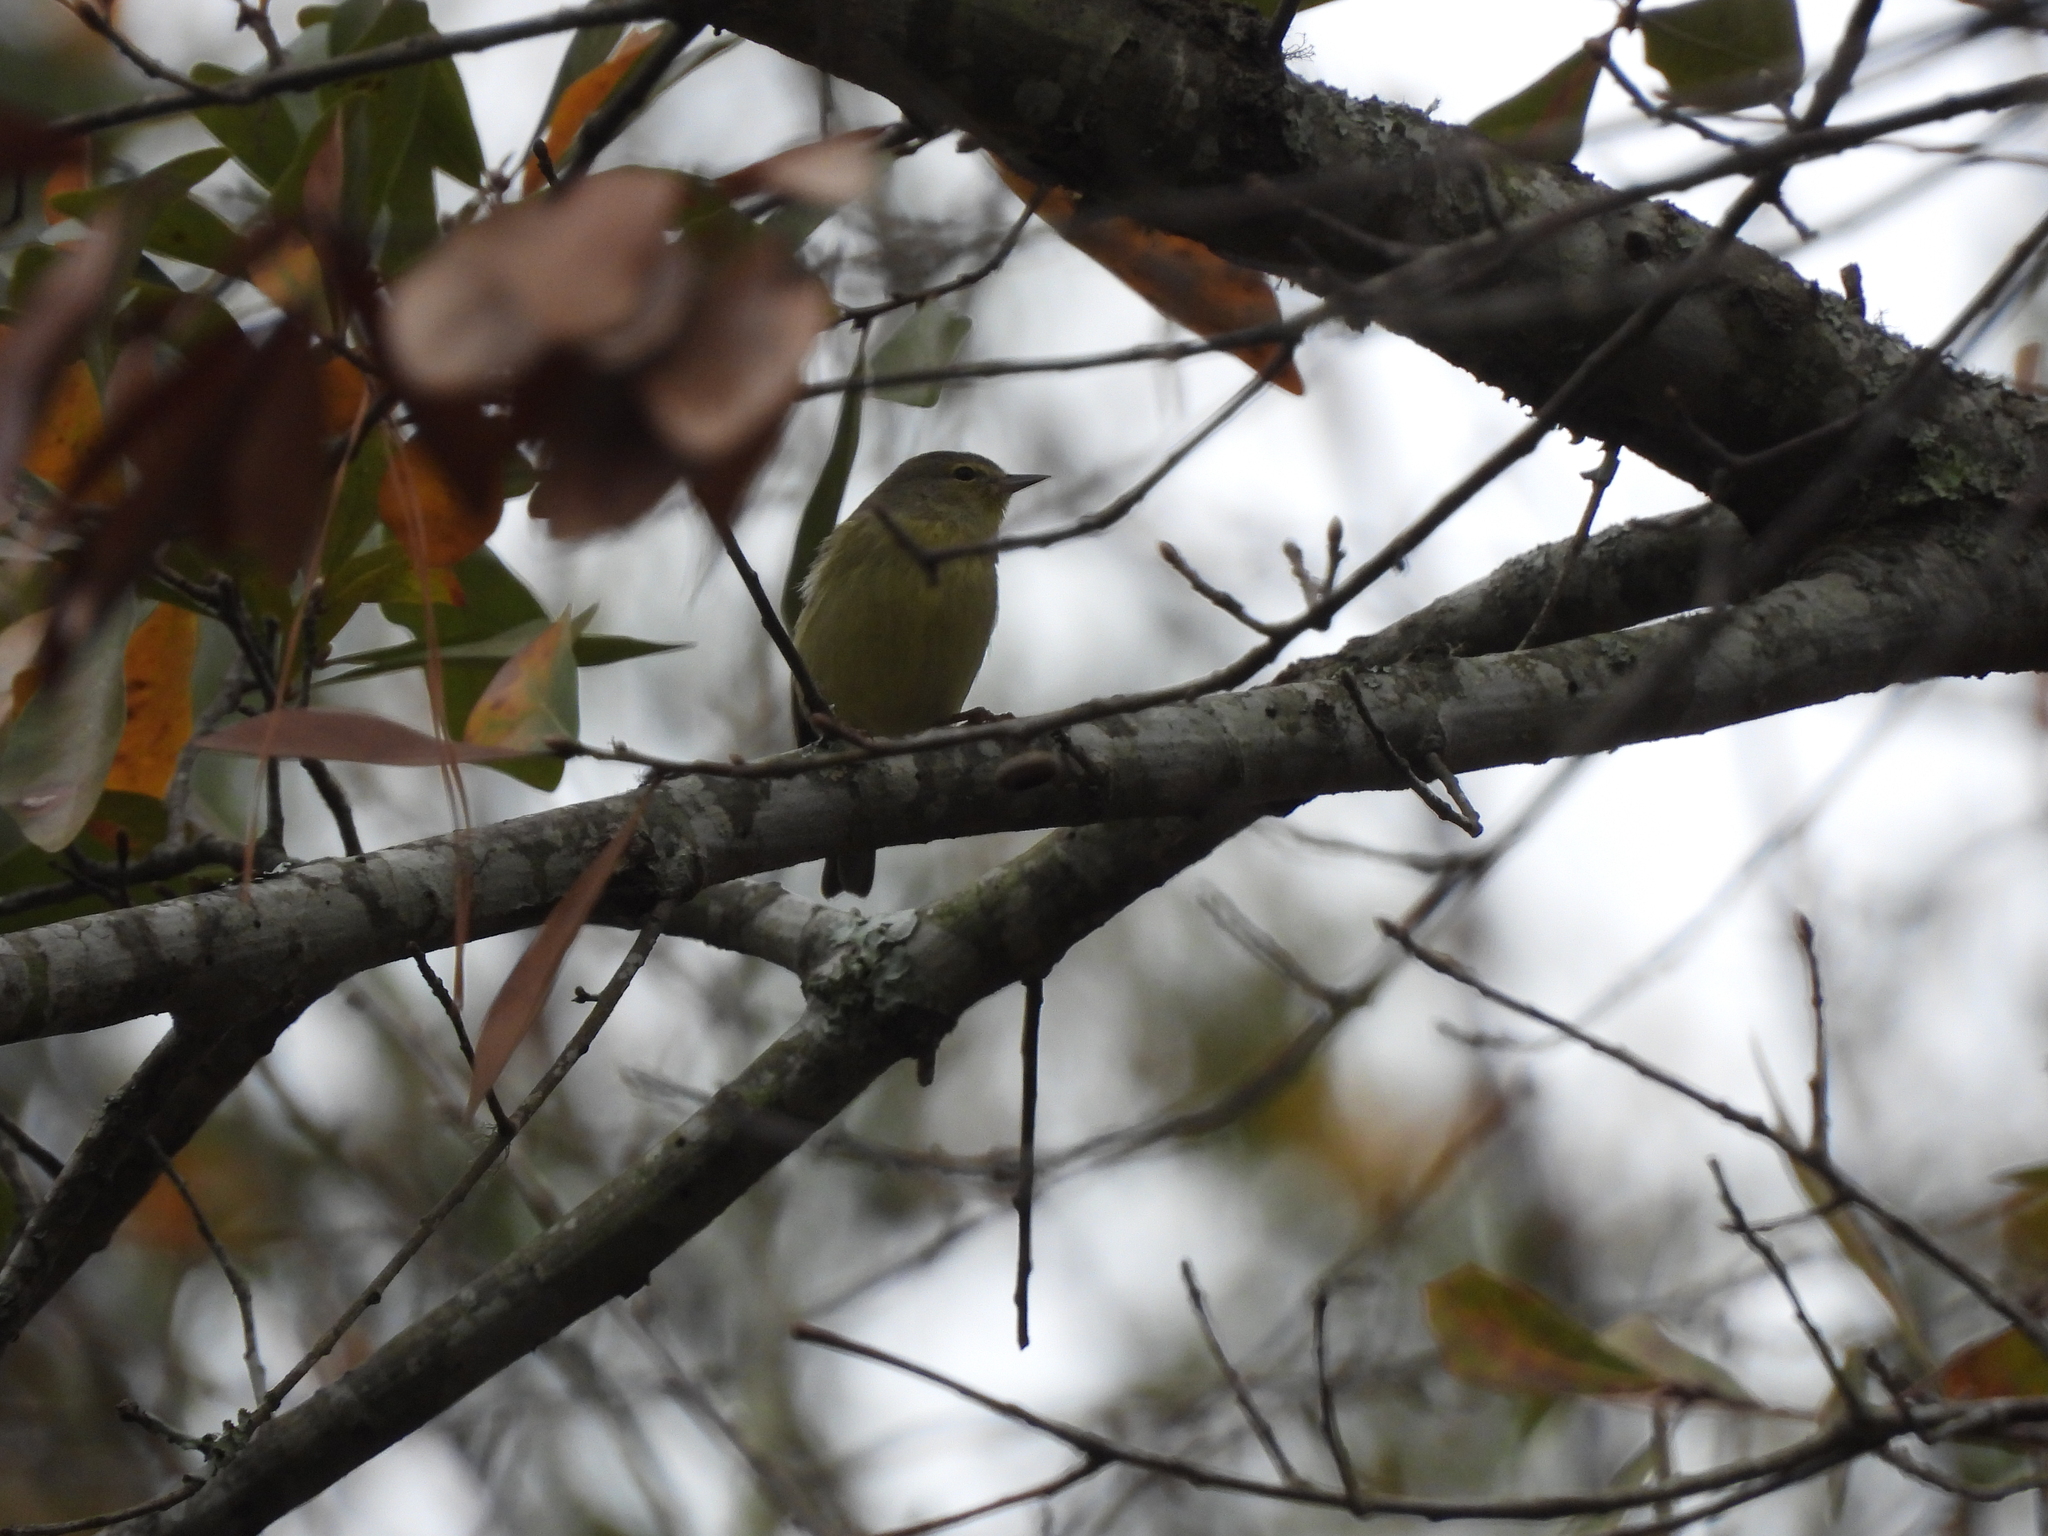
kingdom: Animalia
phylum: Chordata
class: Aves
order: Passeriformes
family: Parulidae
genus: Leiothlypis
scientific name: Leiothlypis celata
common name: Orange-crowned warbler
